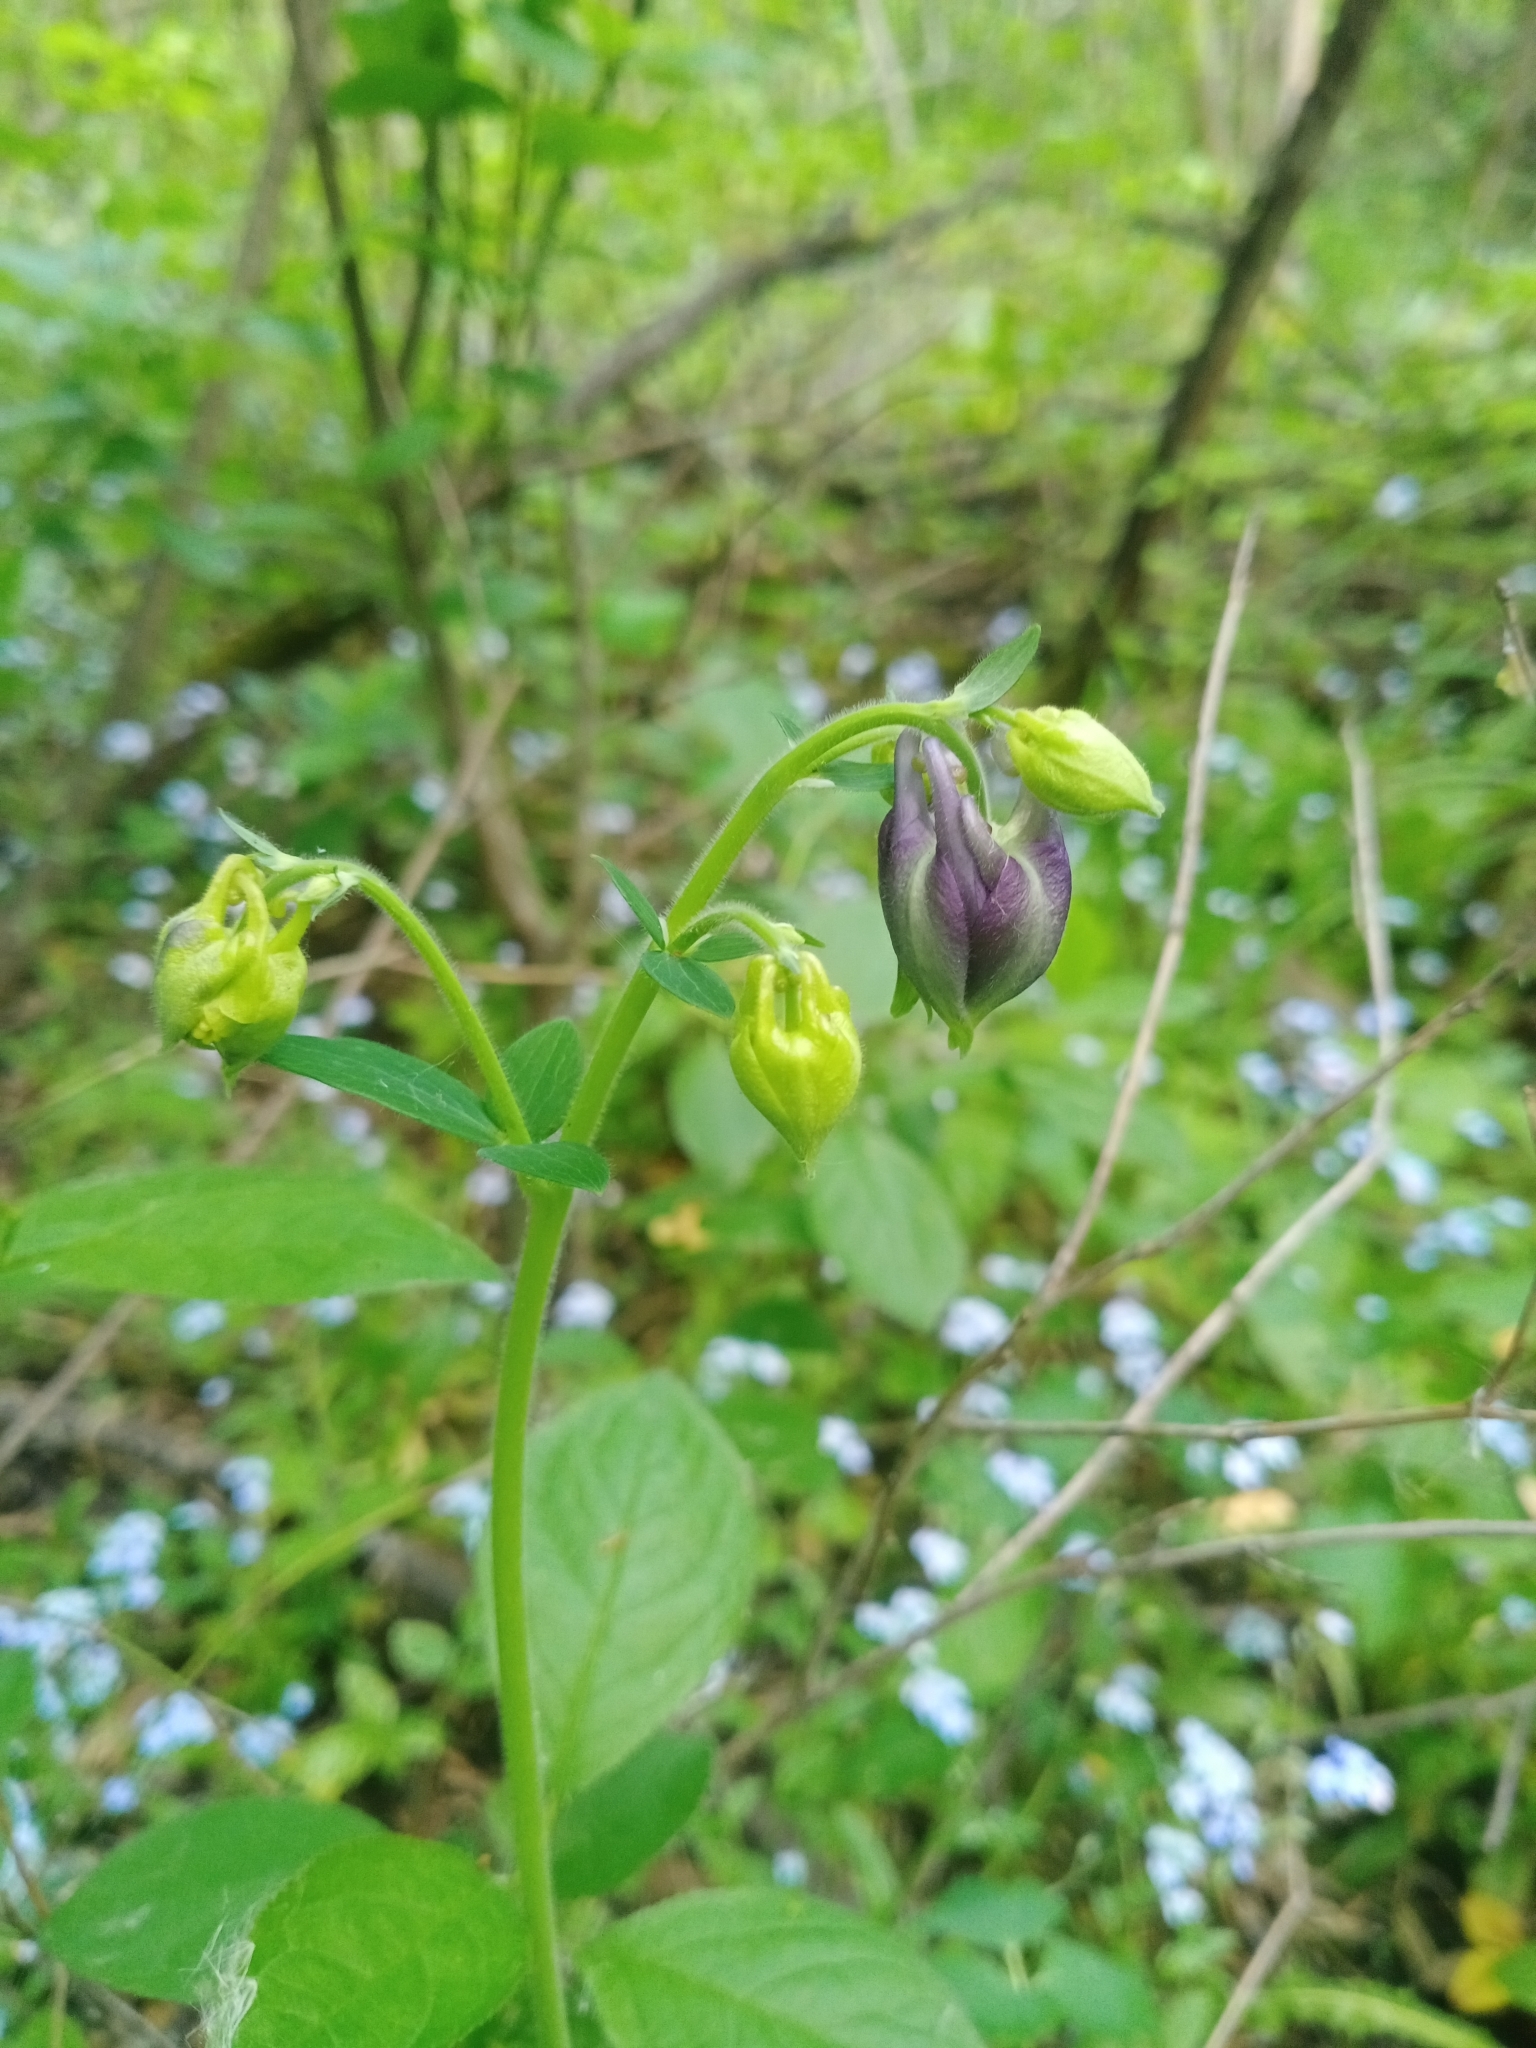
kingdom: Plantae
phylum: Tracheophyta
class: Magnoliopsida
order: Ranunculales
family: Ranunculaceae
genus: Aquilegia
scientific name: Aquilegia vulgaris
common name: Columbine
